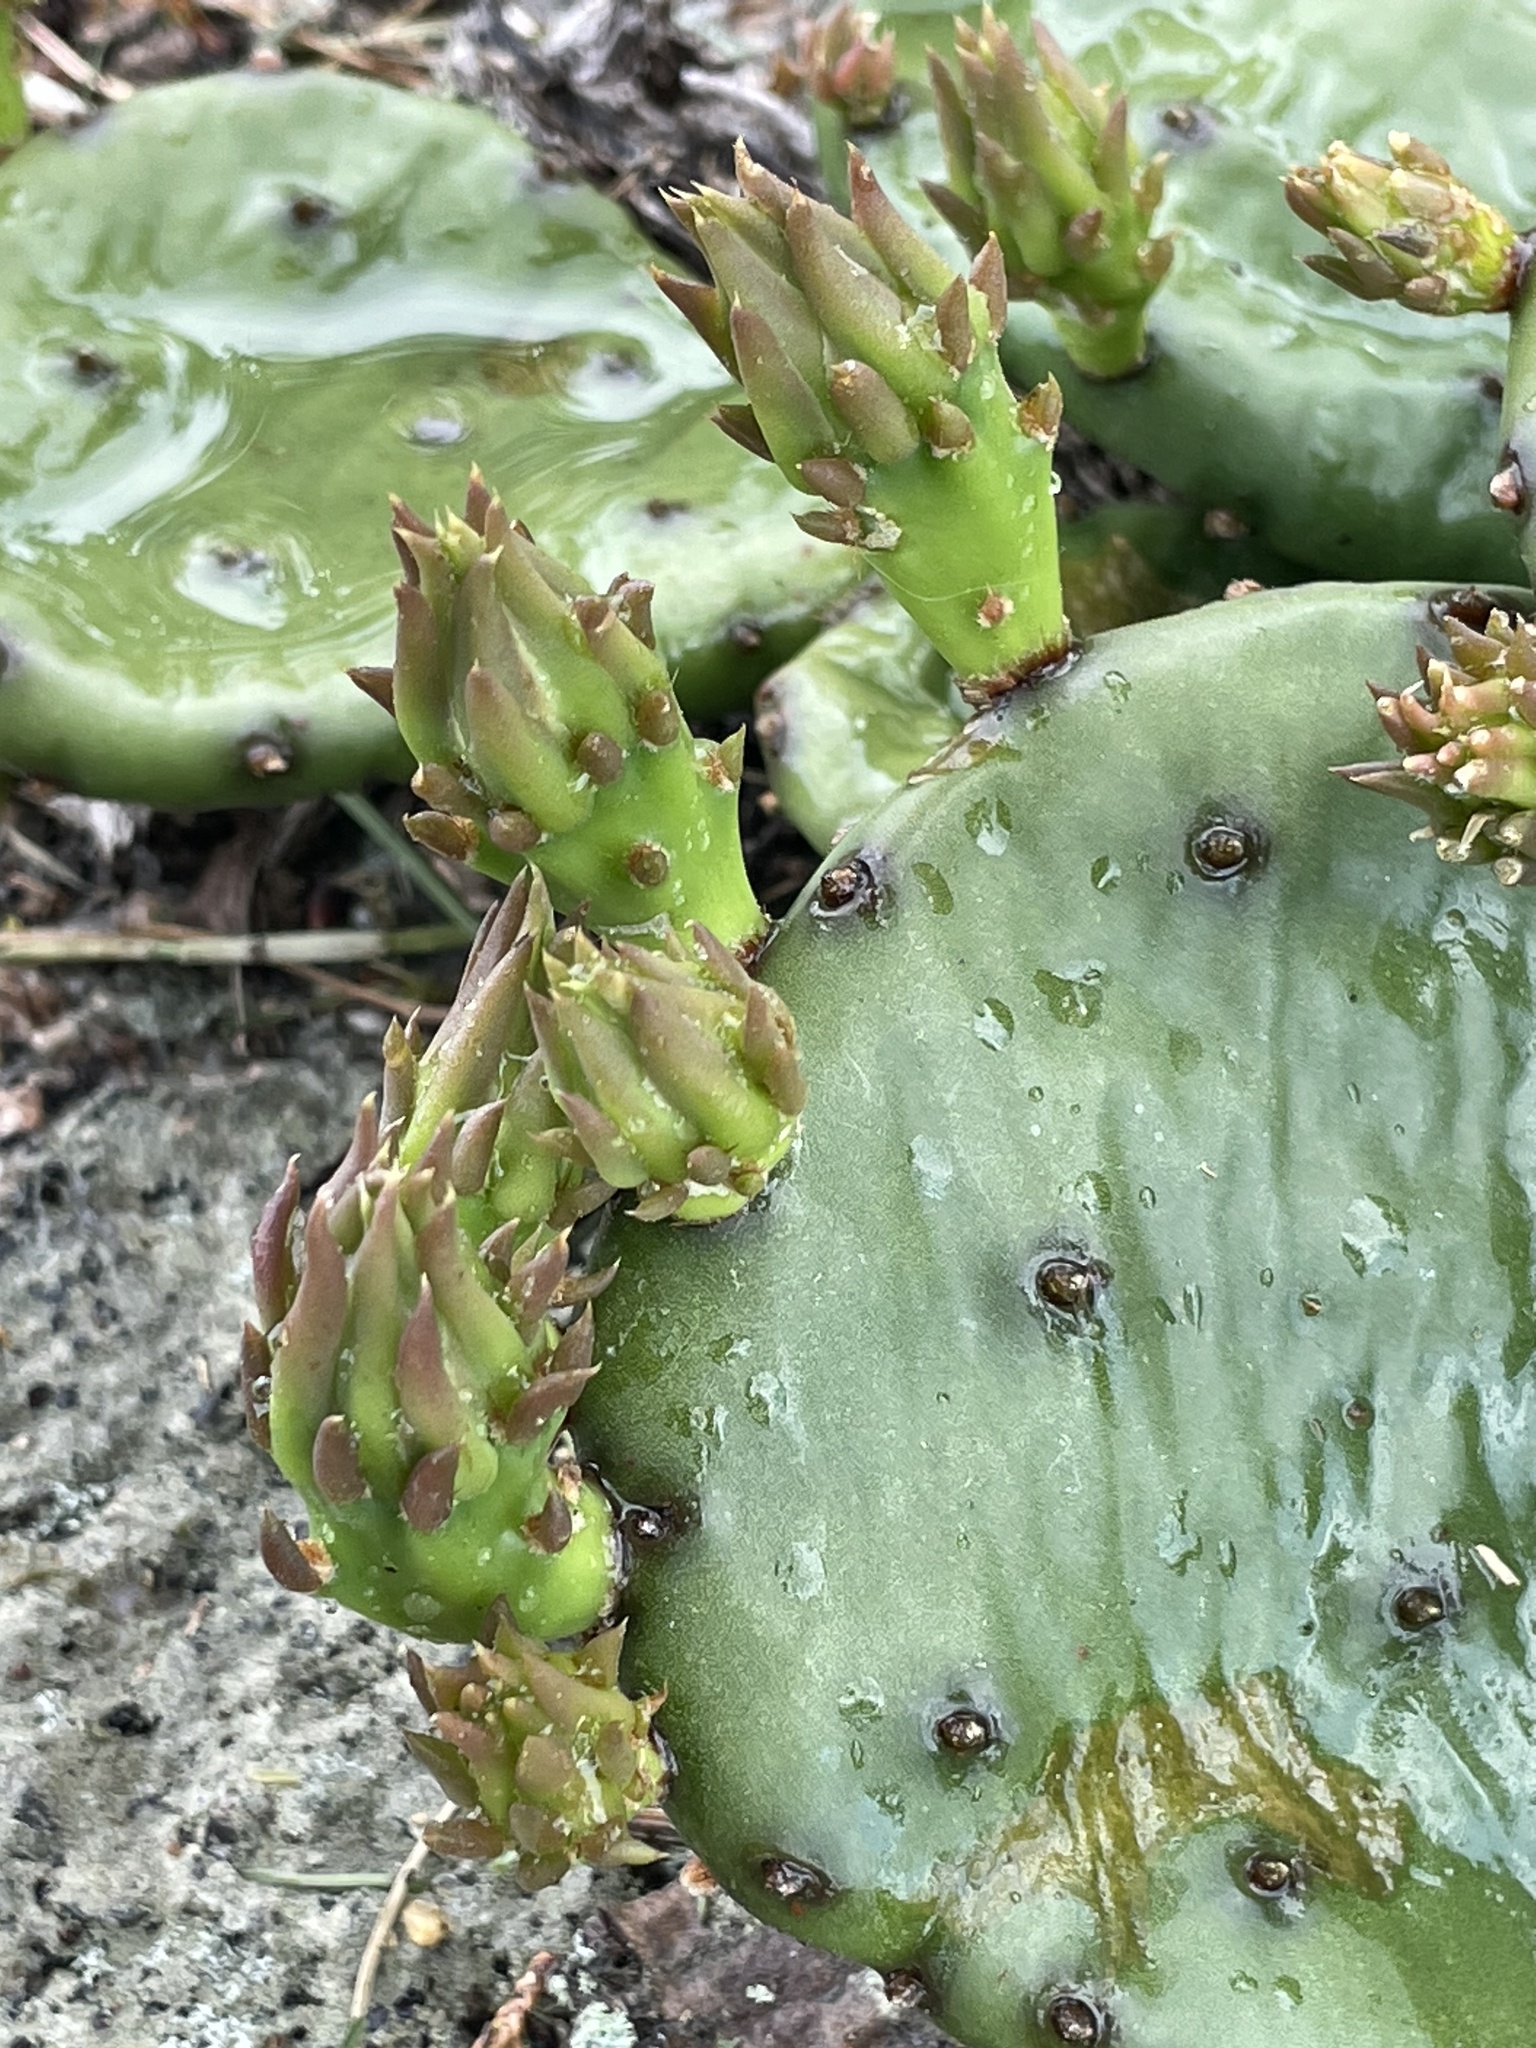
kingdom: Plantae
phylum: Tracheophyta
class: Magnoliopsida
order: Caryophyllales
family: Cactaceae
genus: Opuntia
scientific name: Opuntia humifusa
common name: Eastern prickly-pear
